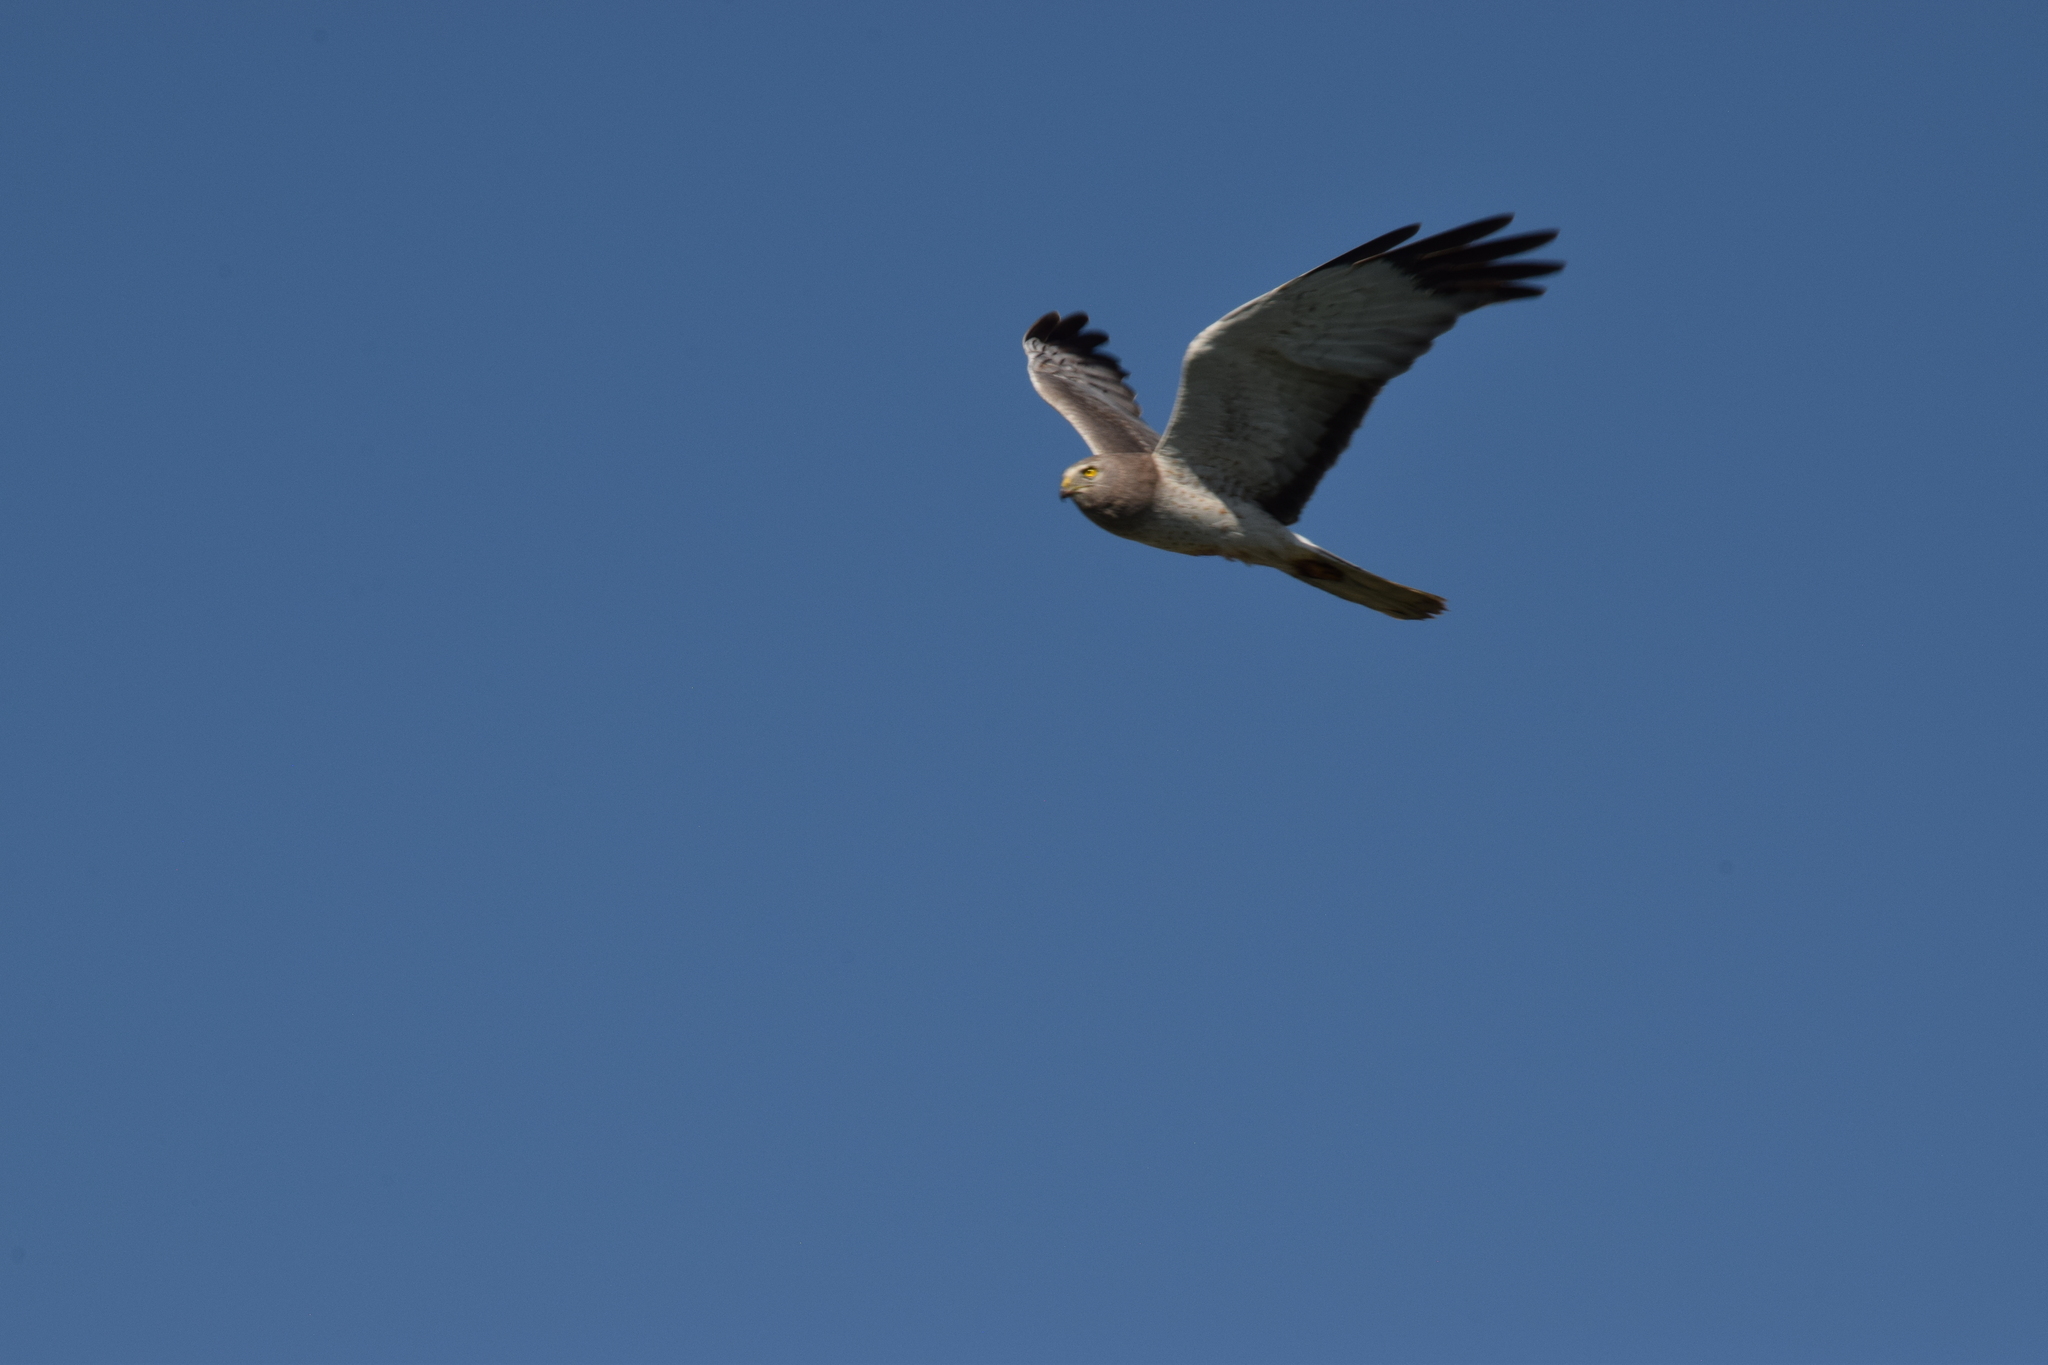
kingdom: Animalia
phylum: Chordata
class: Aves
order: Accipitriformes
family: Accipitridae
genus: Circus
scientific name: Circus cyaneus
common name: Hen harrier
